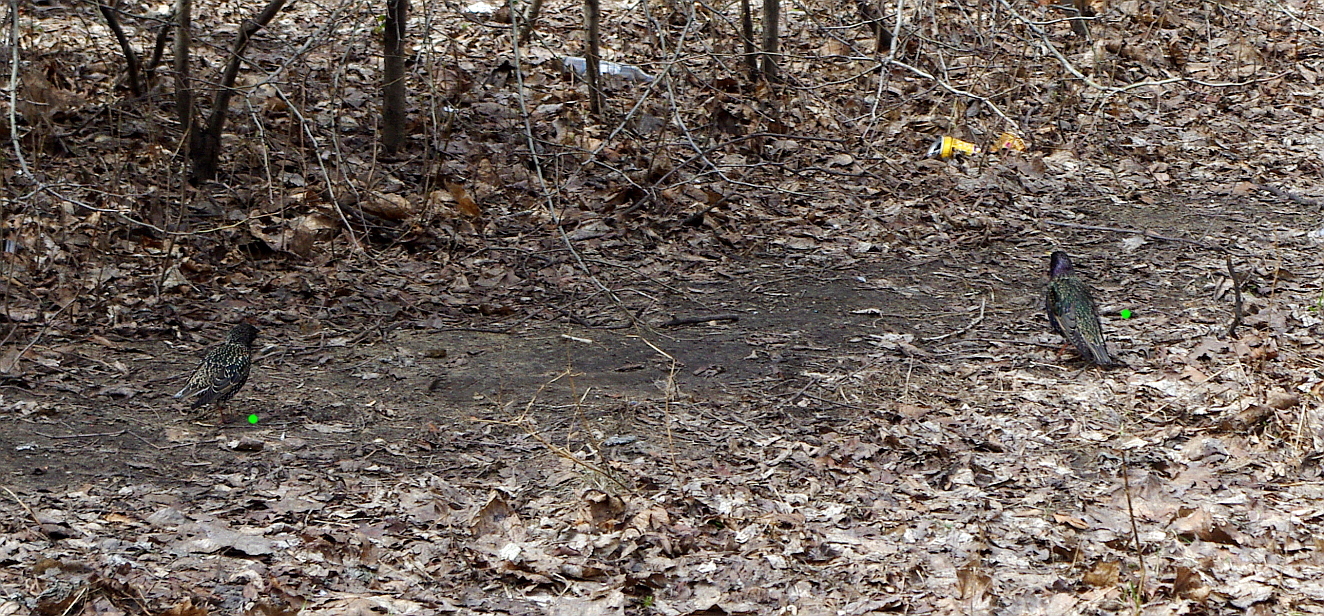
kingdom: Animalia
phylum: Chordata
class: Aves
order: Passeriformes
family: Sturnidae
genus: Sturnus
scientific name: Sturnus vulgaris
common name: Common starling
